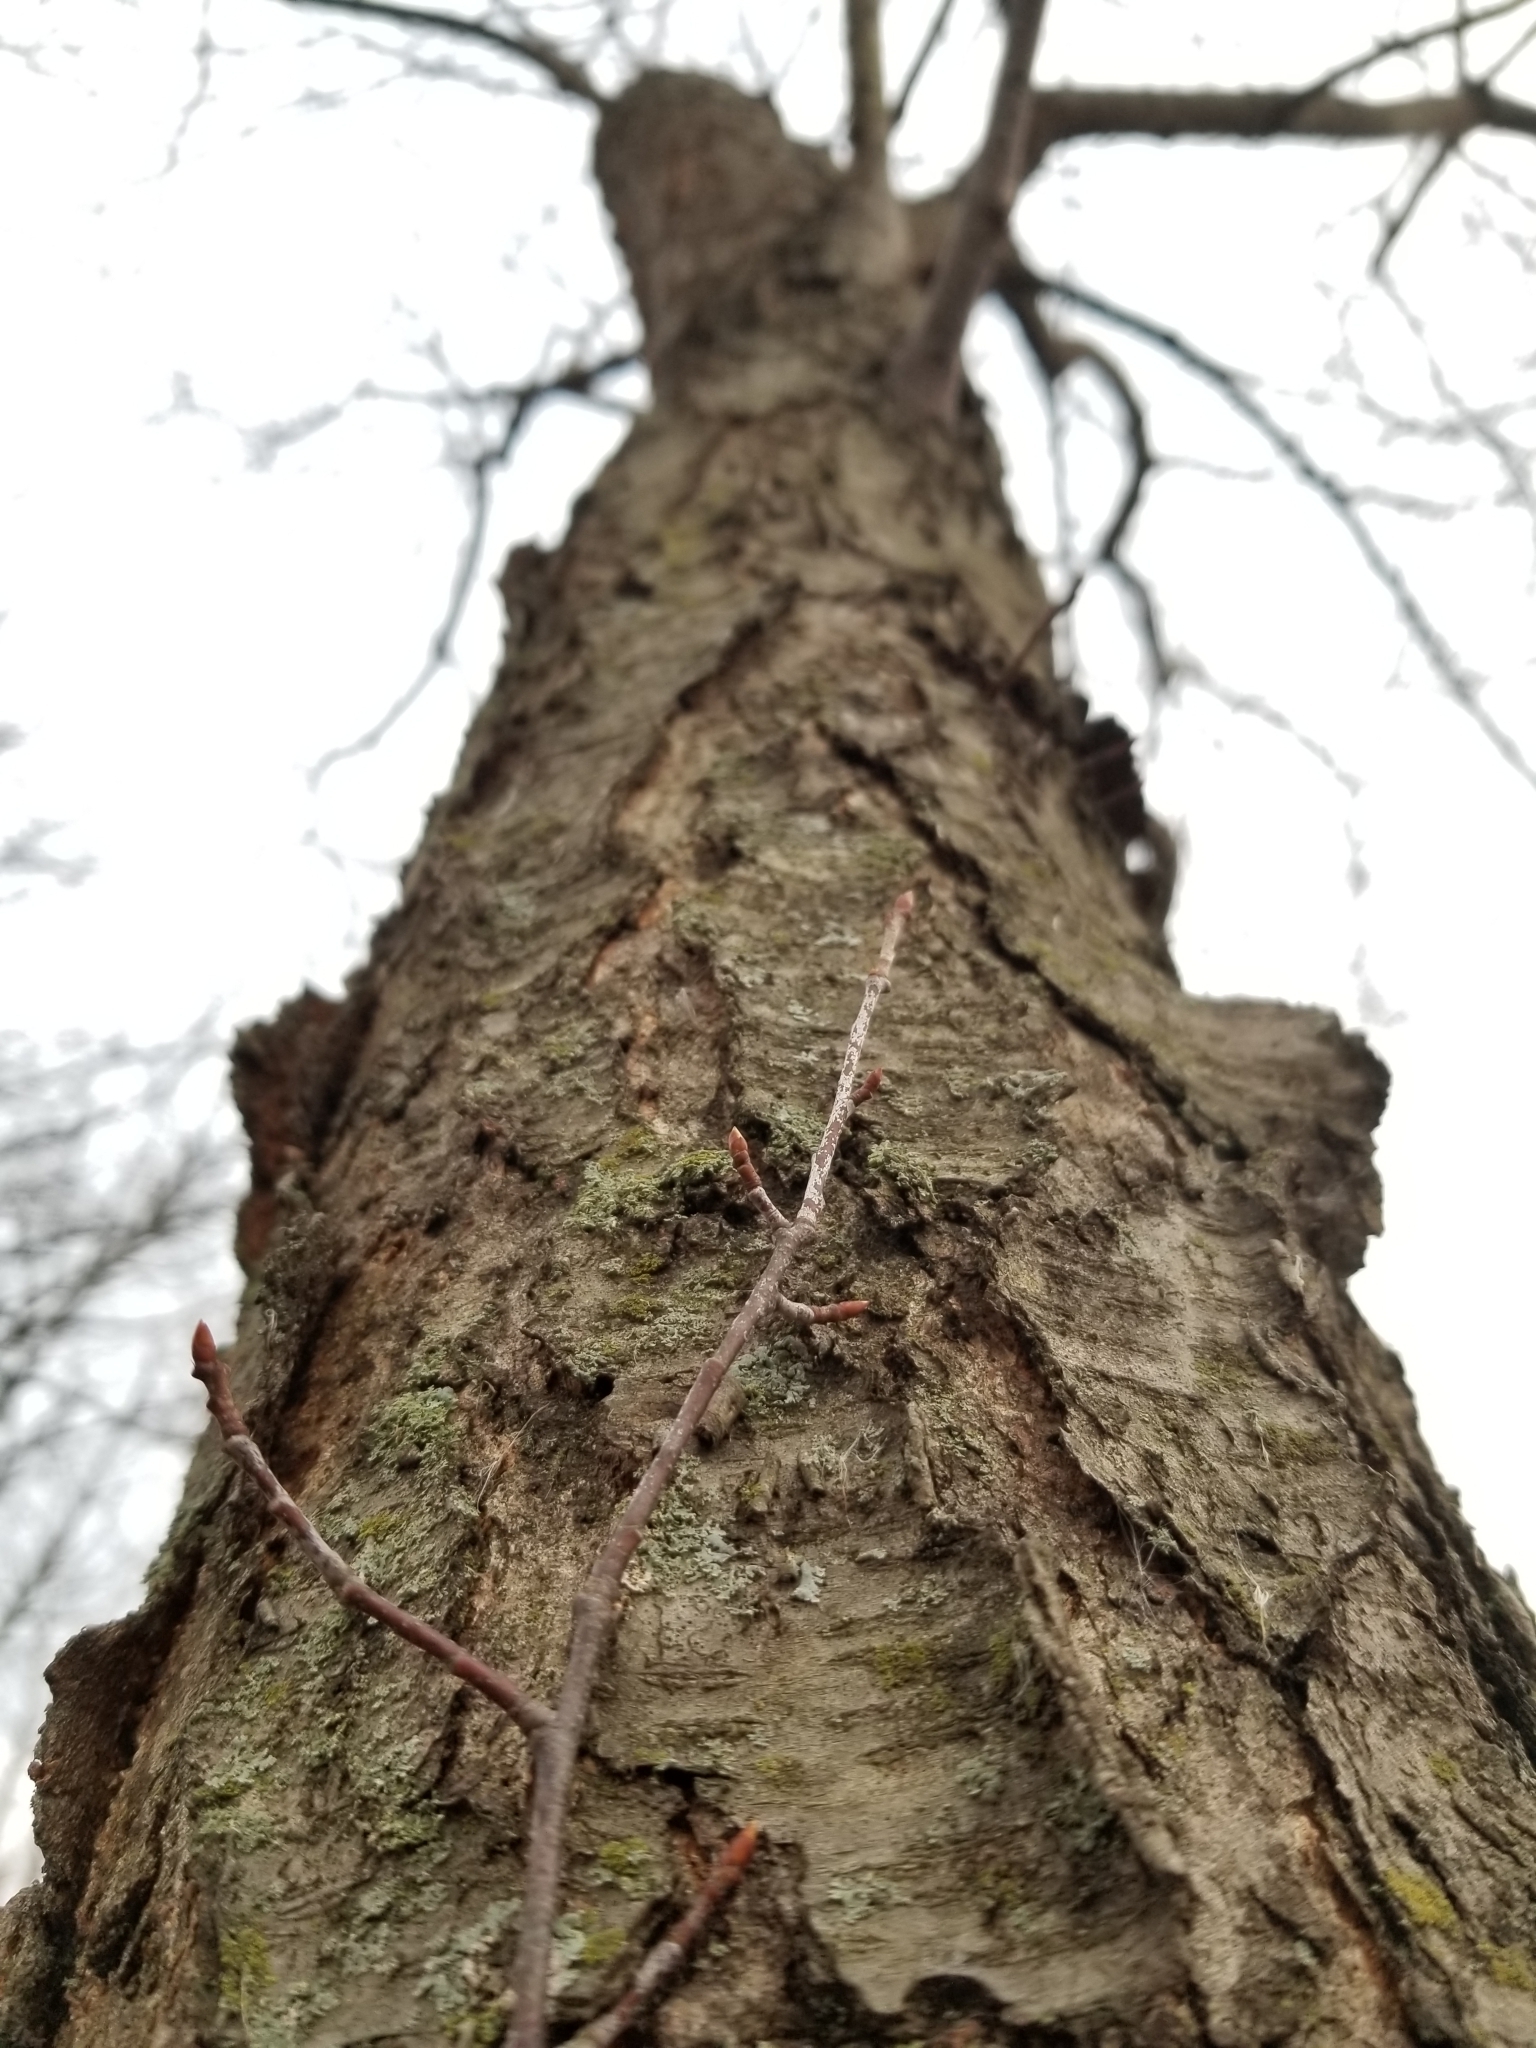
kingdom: Plantae
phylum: Tracheophyta
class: Magnoliopsida
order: Rosales
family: Rosaceae
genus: Prunus
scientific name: Prunus serotina
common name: Black cherry
